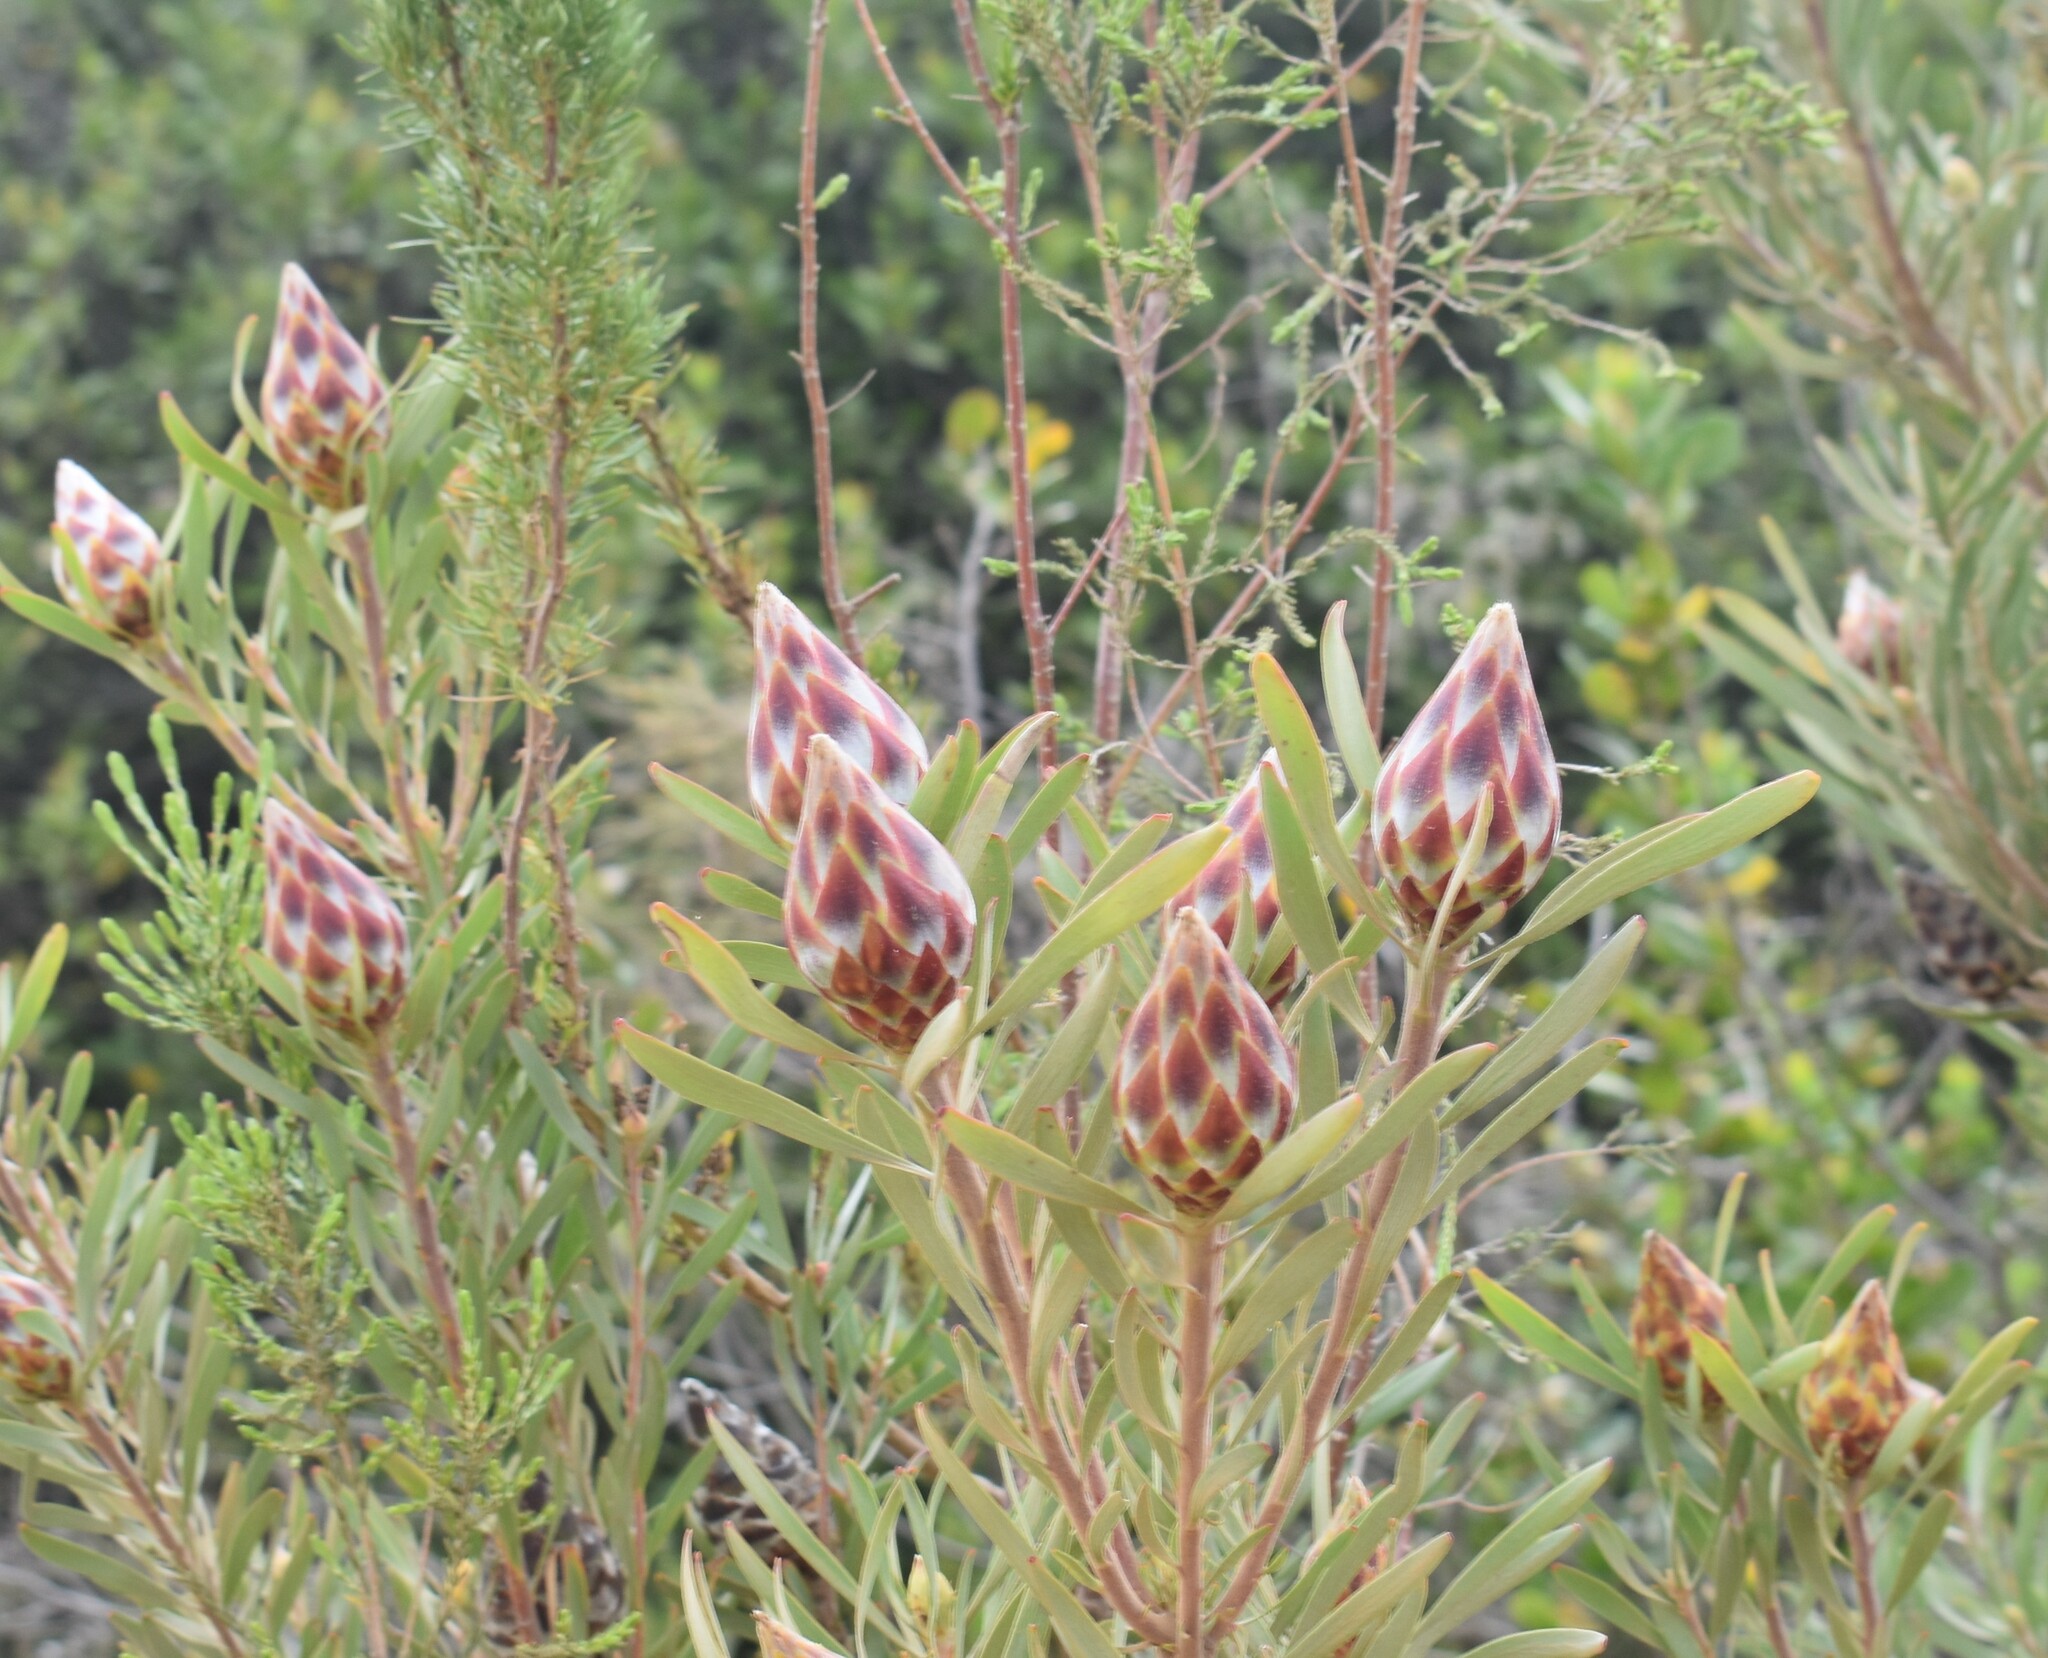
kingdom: Plantae
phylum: Tracheophyta
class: Magnoliopsida
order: Proteales
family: Proteaceae
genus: Leucadendron
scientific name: Leucadendron rubrum
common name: Spinning top
